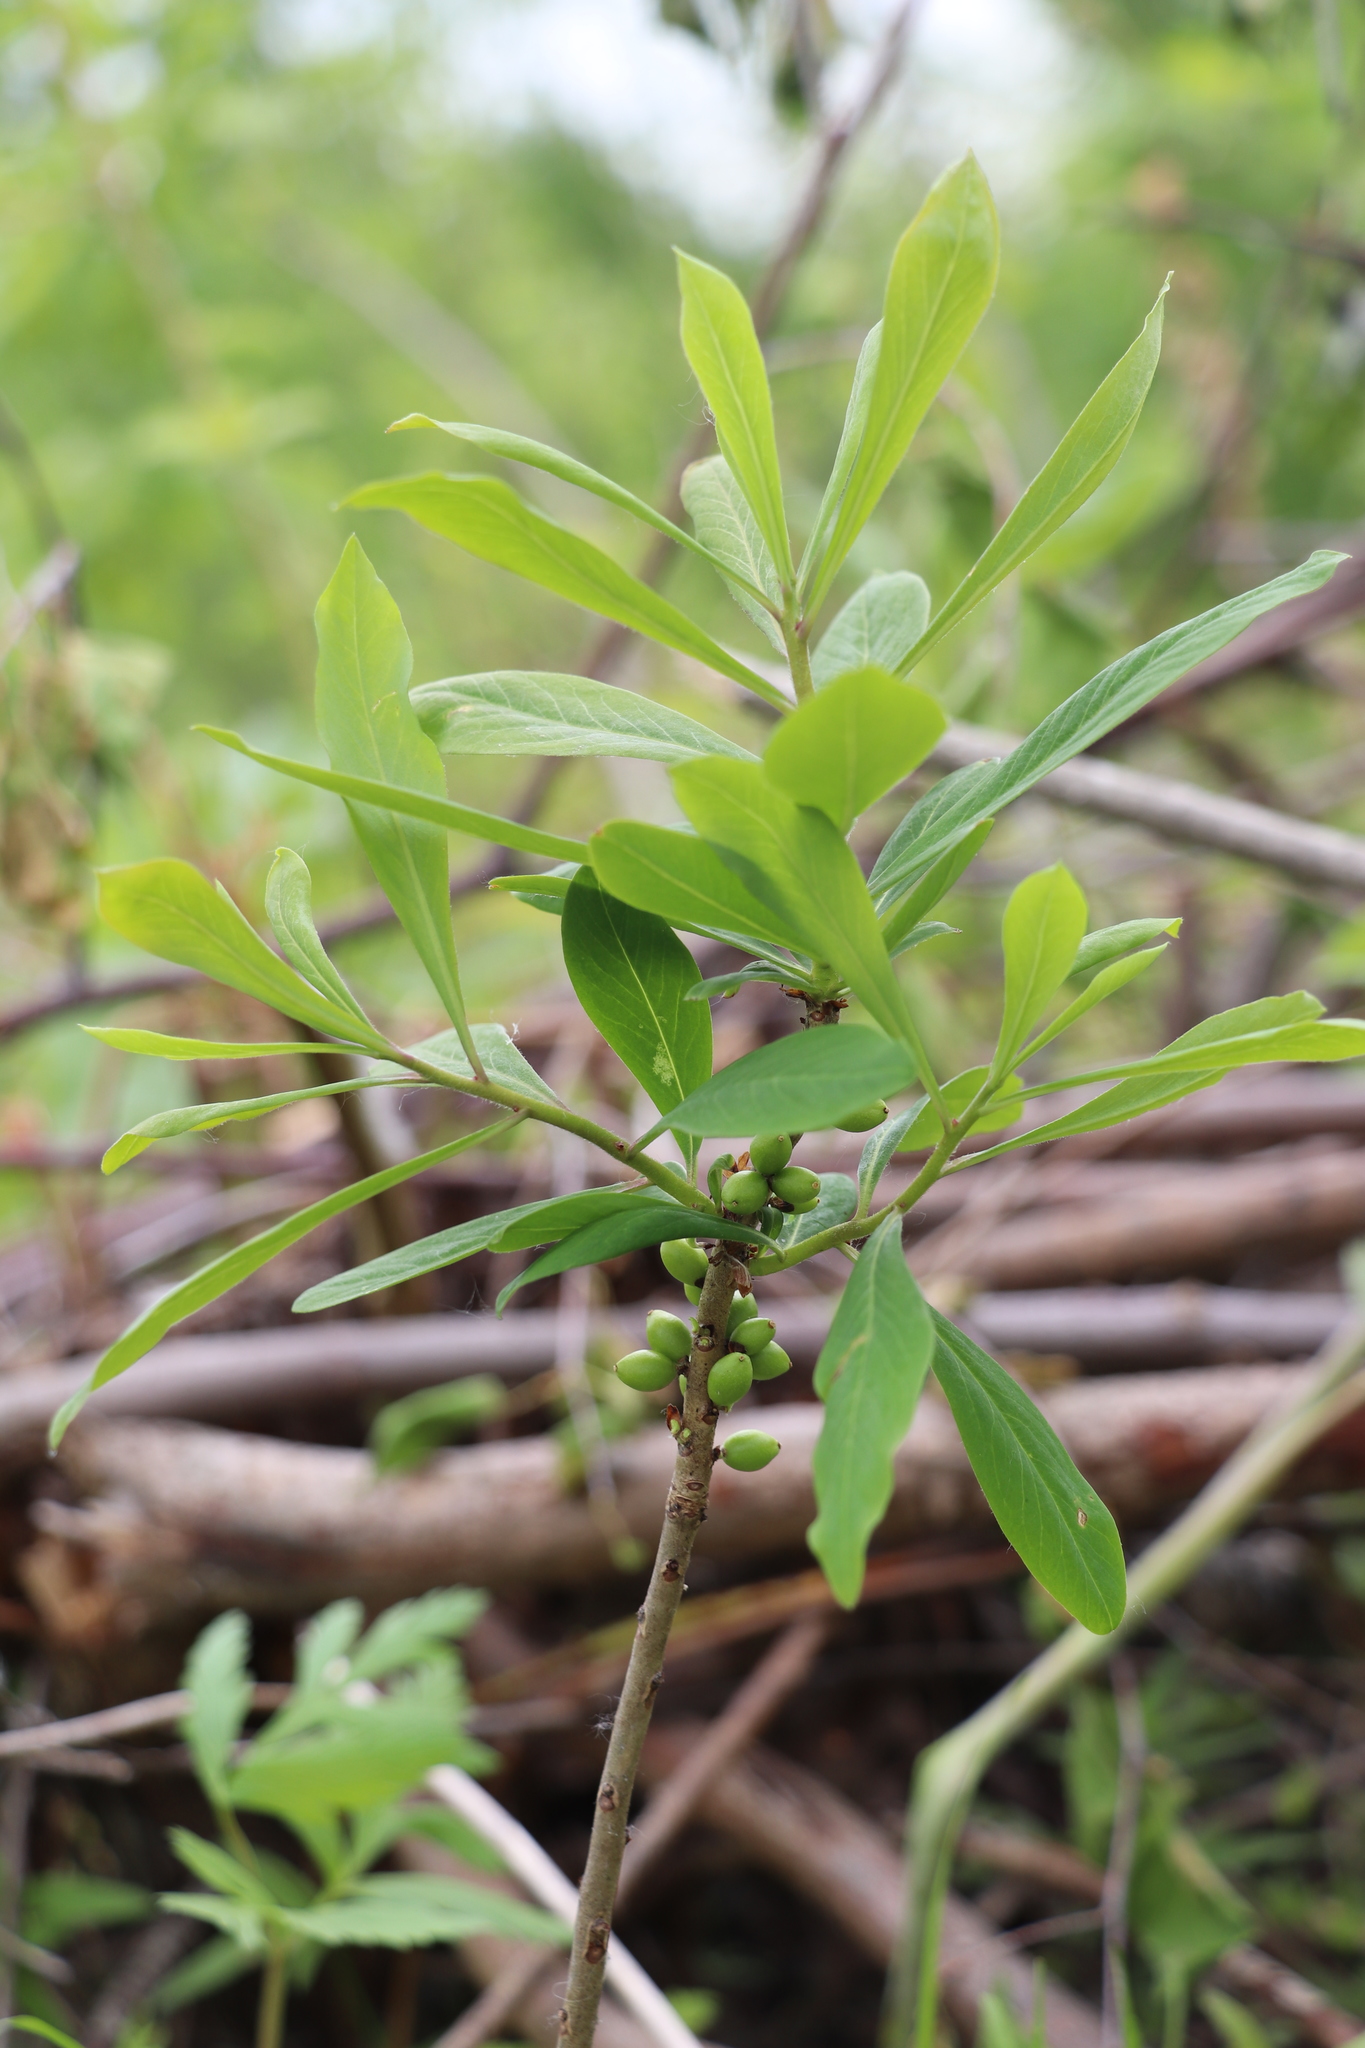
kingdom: Plantae
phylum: Tracheophyta
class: Magnoliopsida
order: Malvales
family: Thymelaeaceae
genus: Daphne
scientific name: Daphne mezereum
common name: Mezereon
